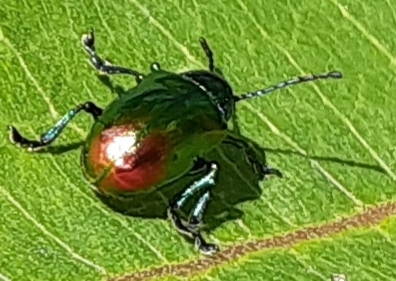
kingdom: Animalia
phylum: Arthropoda
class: Insecta
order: Coleoptera
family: Chrysomelidae
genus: Chrysochus
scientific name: Chrysochus auratus
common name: Dogbane leaf beetle
